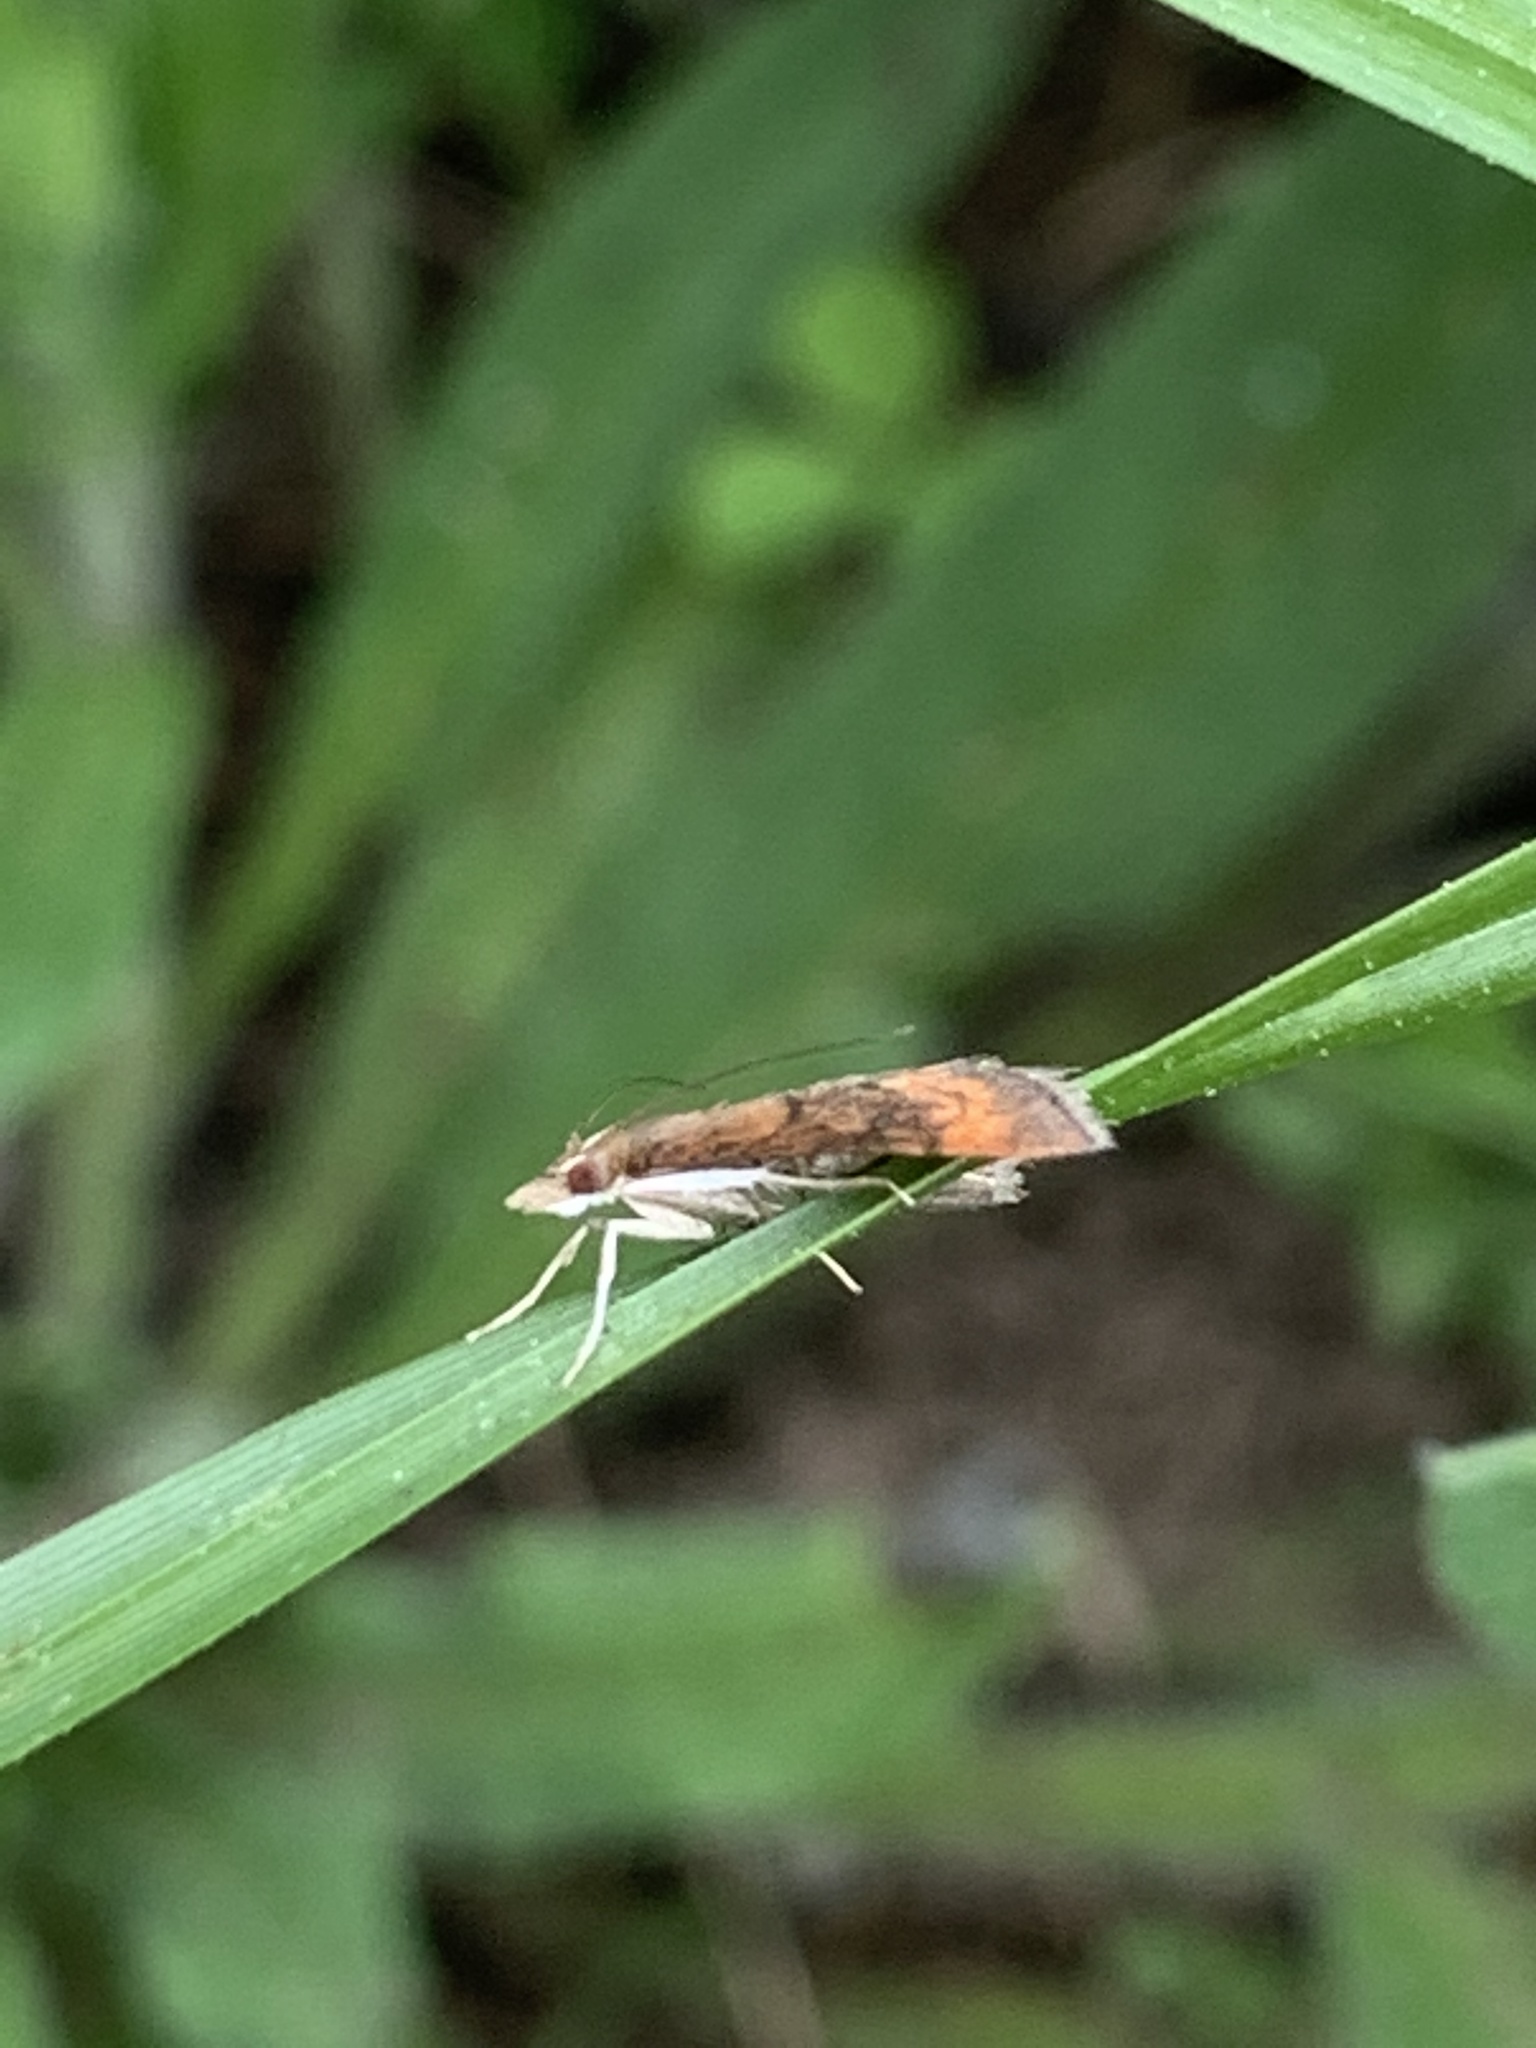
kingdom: Animalia
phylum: Arthropoda
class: Insecta
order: Lepidoptera
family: Crambidae
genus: Pyrausta
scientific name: Pyrausta rubricalis
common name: Variable reddish pyrausta
